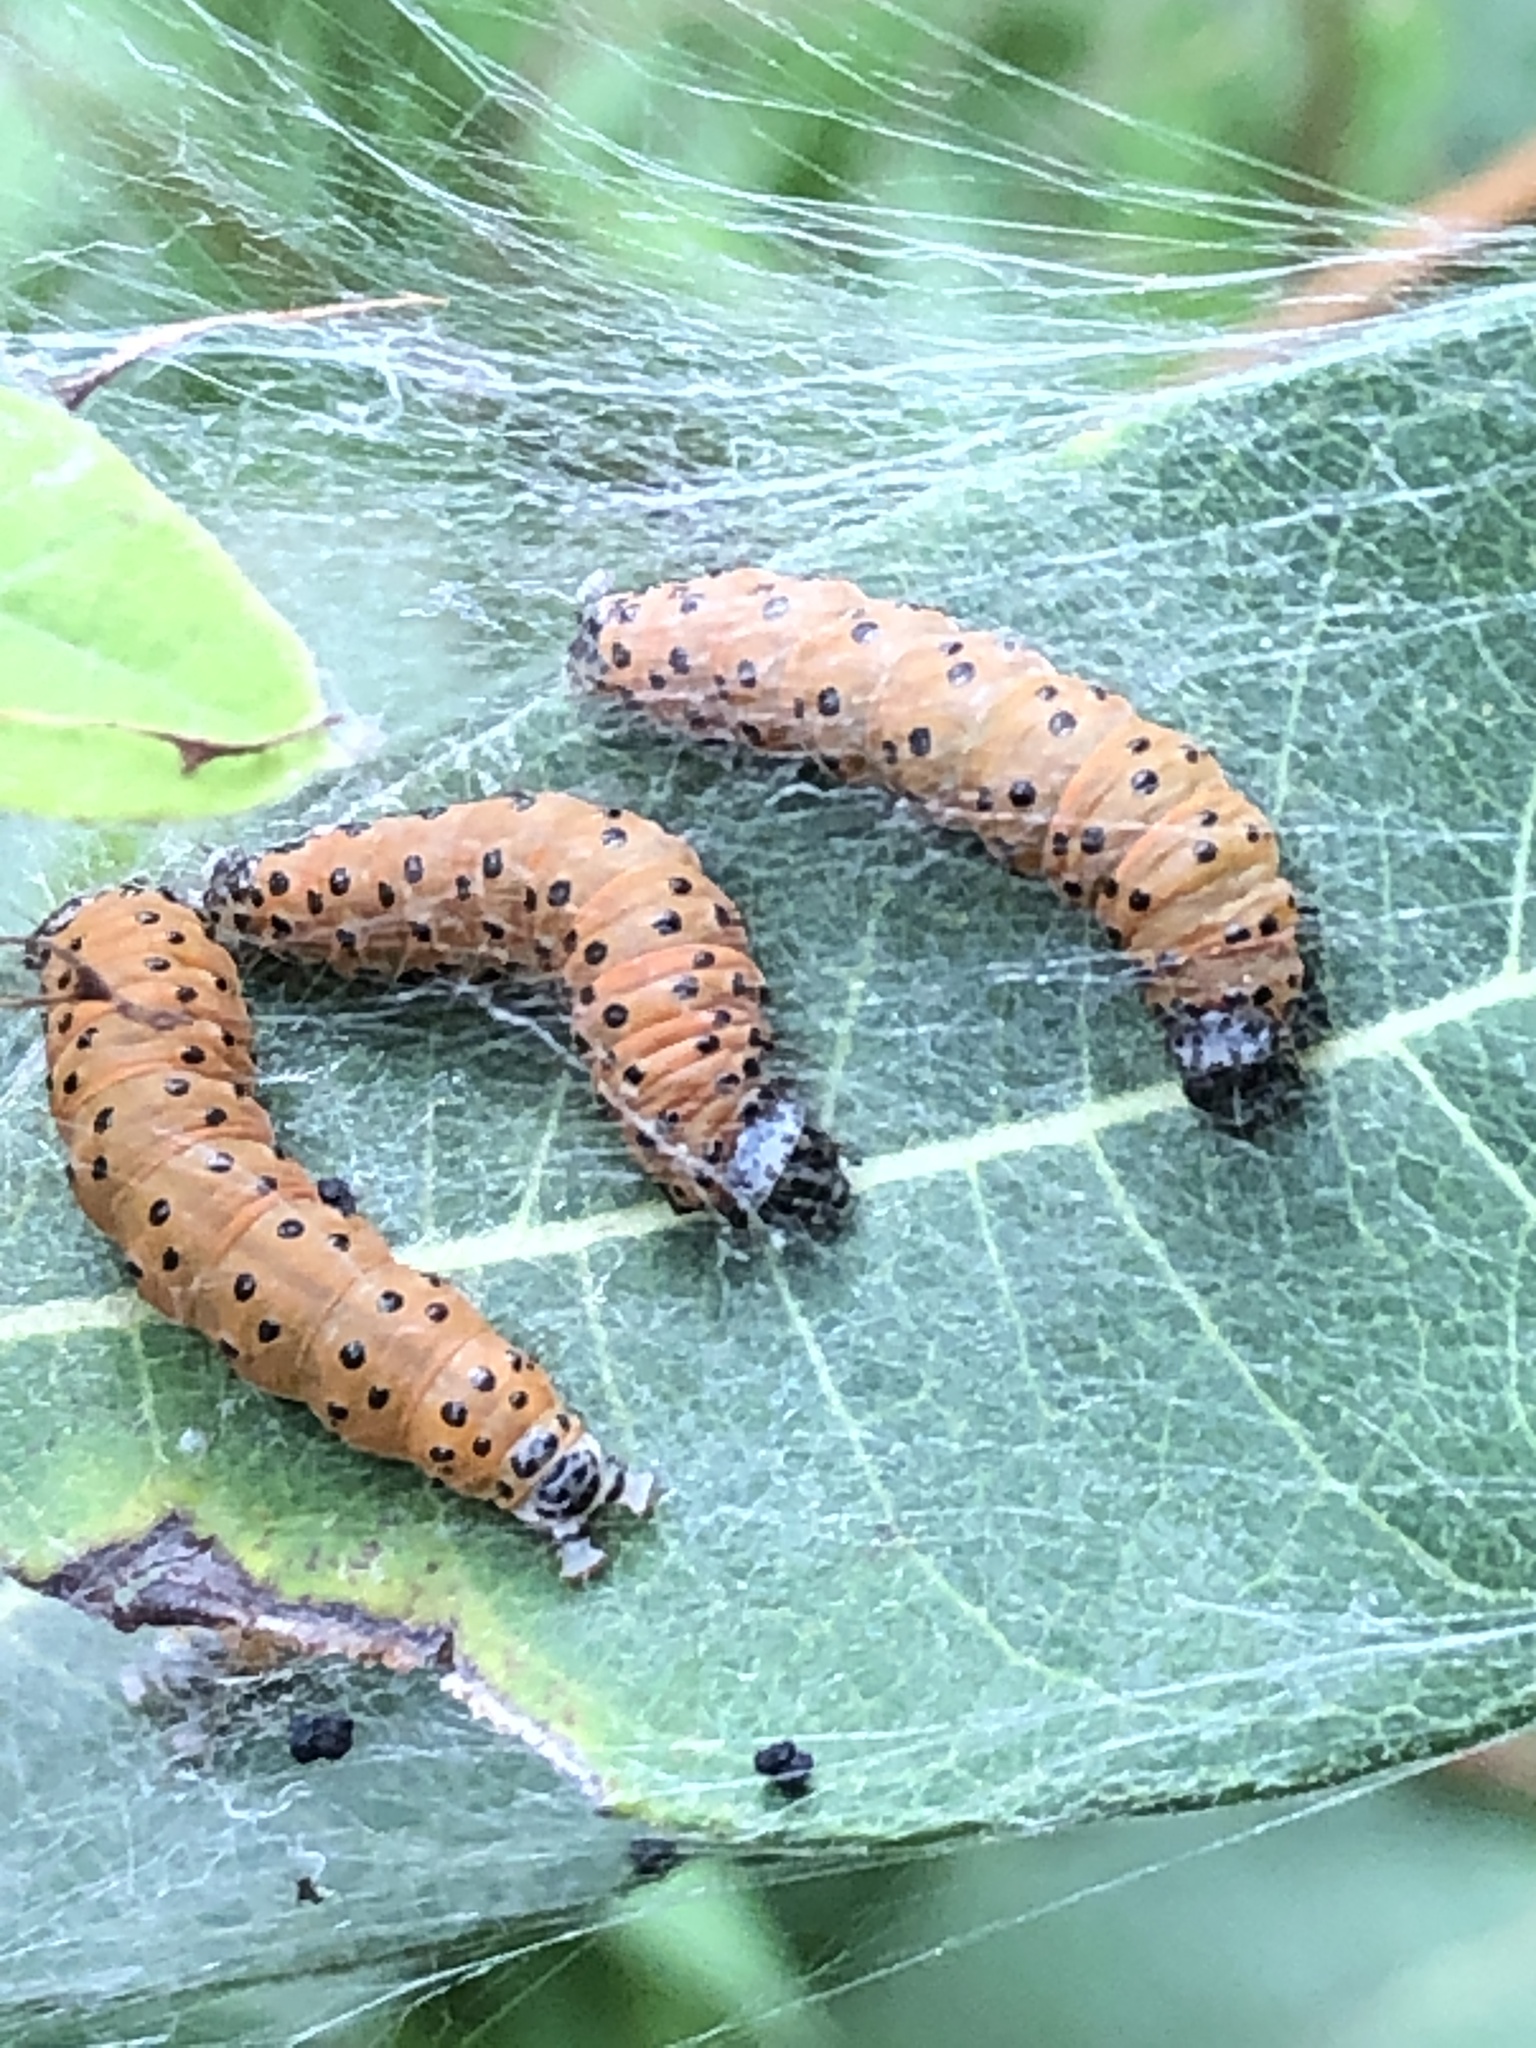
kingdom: Animalia
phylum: Arthropoda
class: Insecta
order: Lepidoptera
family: Crambidae
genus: Saucrobotys
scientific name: Saucrobotys futilalis
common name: Dogbane saucrobotys moth
